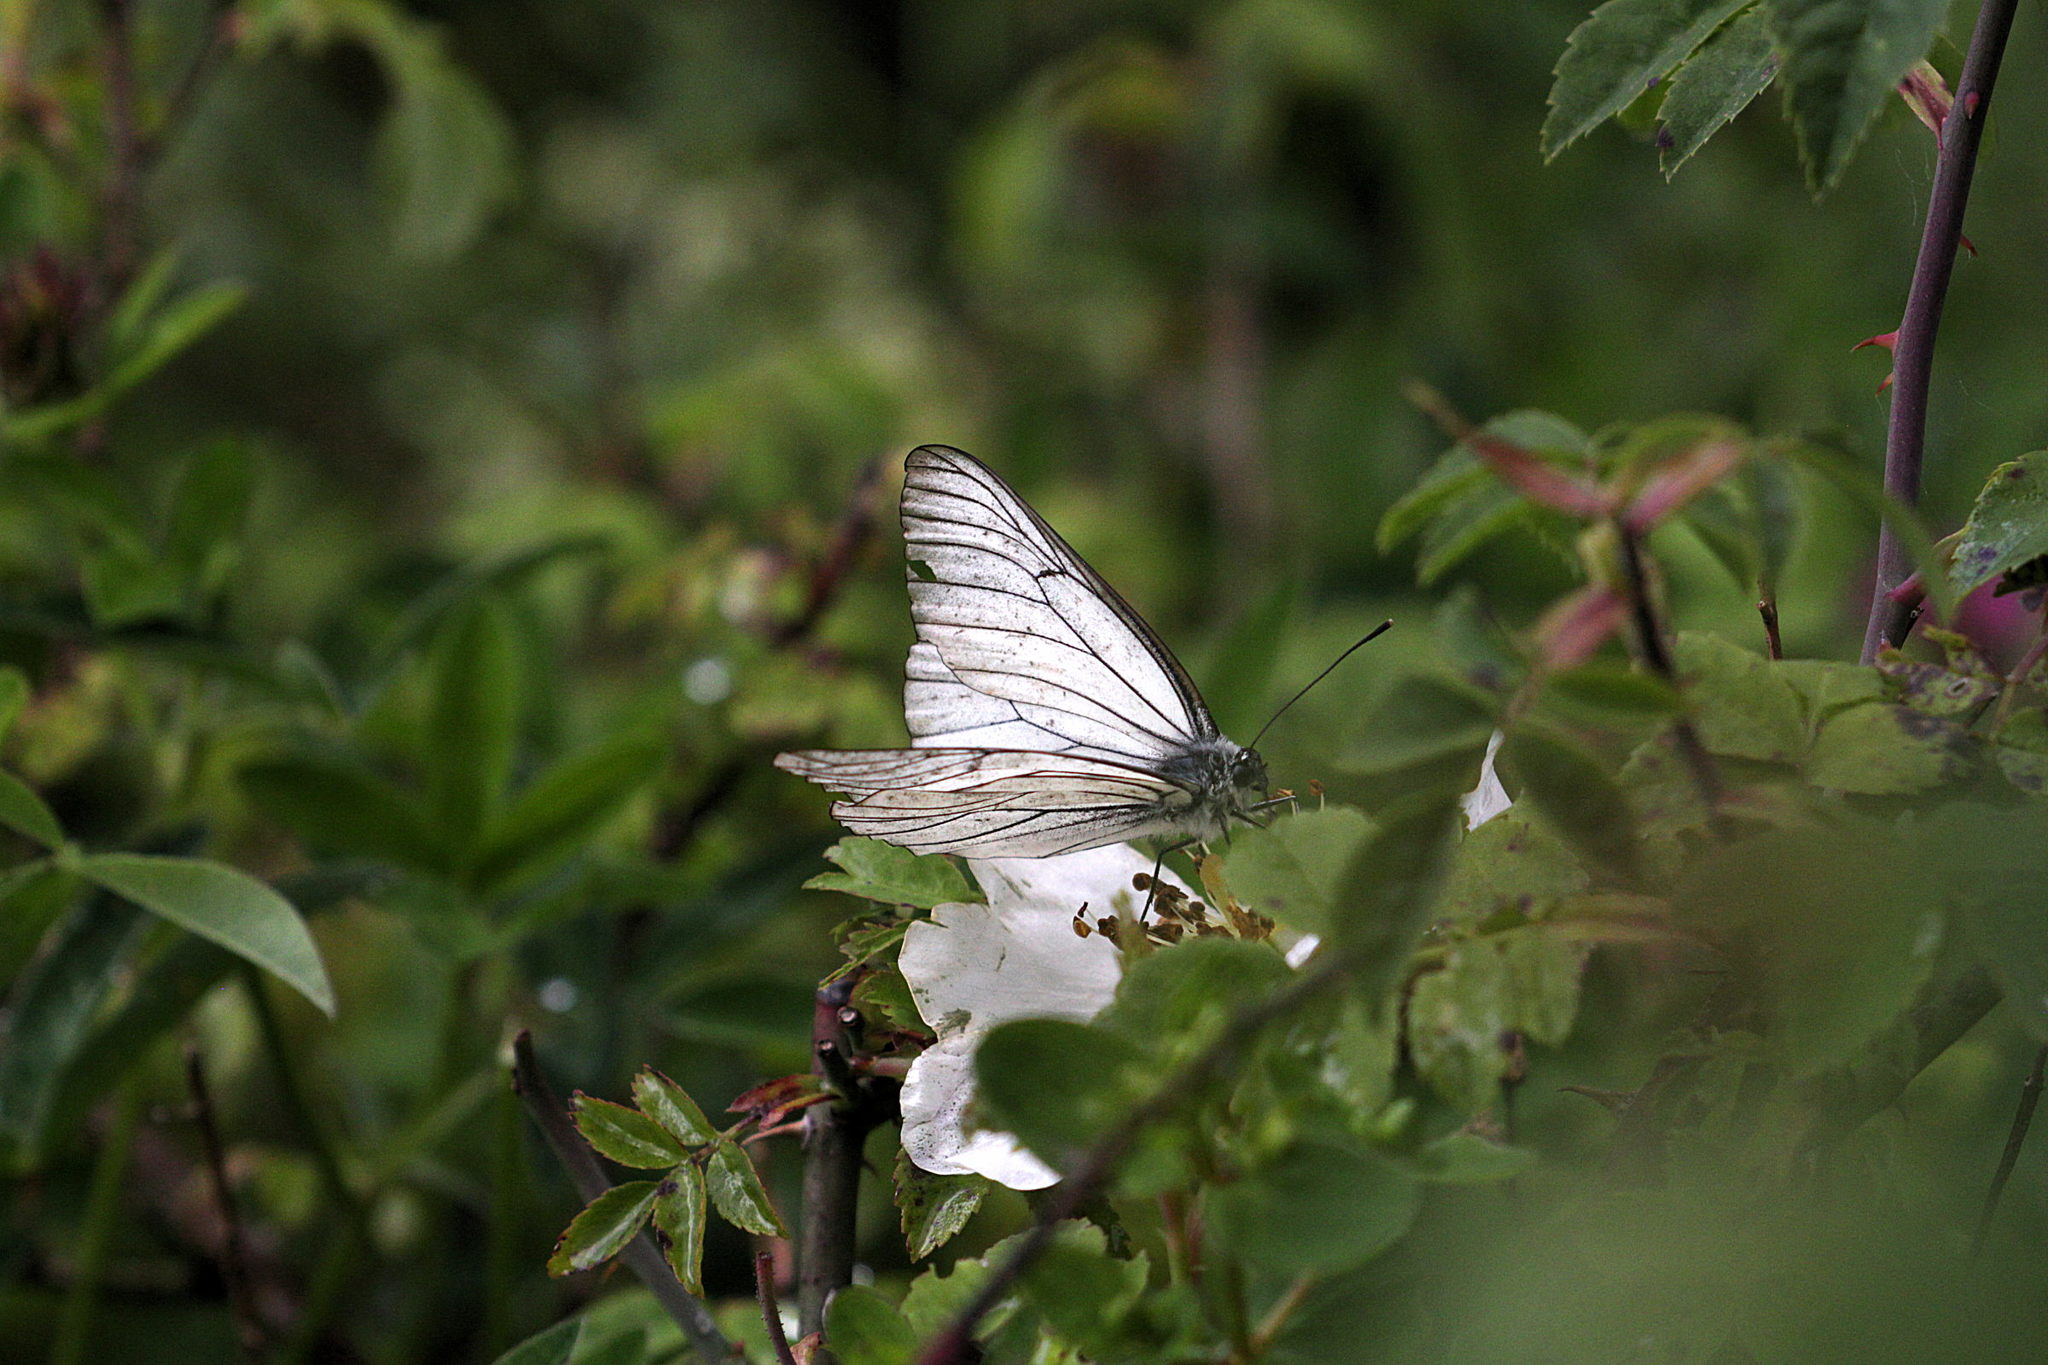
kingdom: Animalia
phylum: Arthropoda
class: Insecta
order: Lepidoptera
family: Pieridae
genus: Aporia
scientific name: Aporia crataegi
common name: Black-veined white
